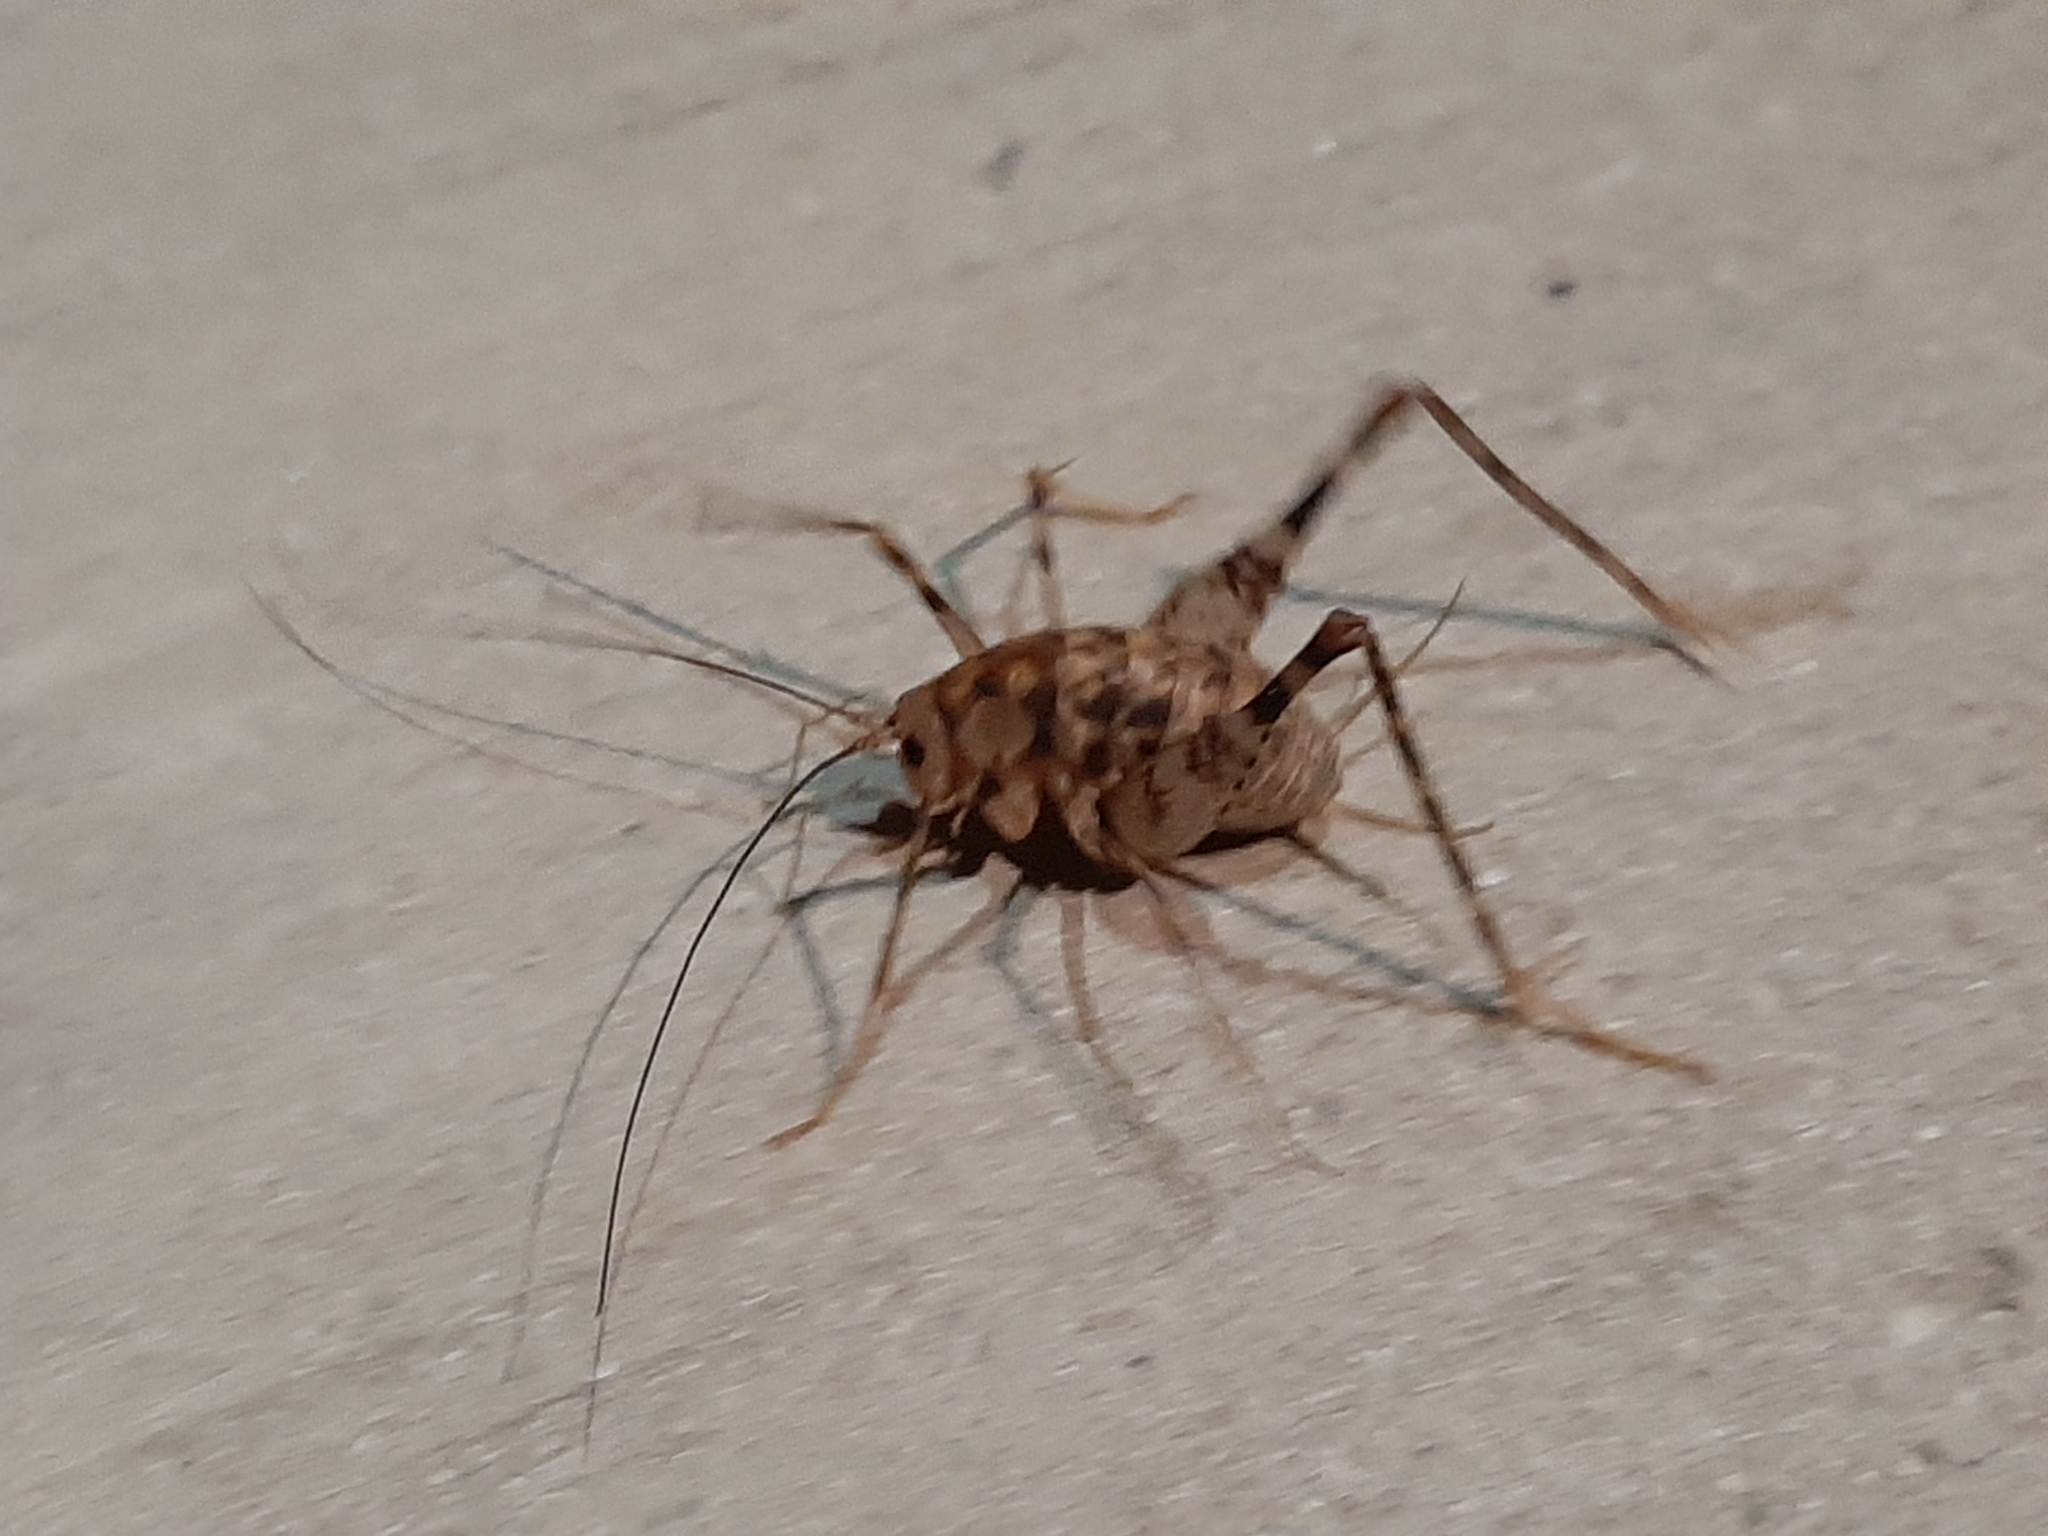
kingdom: Animalia
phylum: Arthropoda
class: Insecta
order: Orthoptera
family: Rhaphidophoridae
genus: Tachycines
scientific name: Tachycines asynamorus
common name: Greenhouse camel cricket
